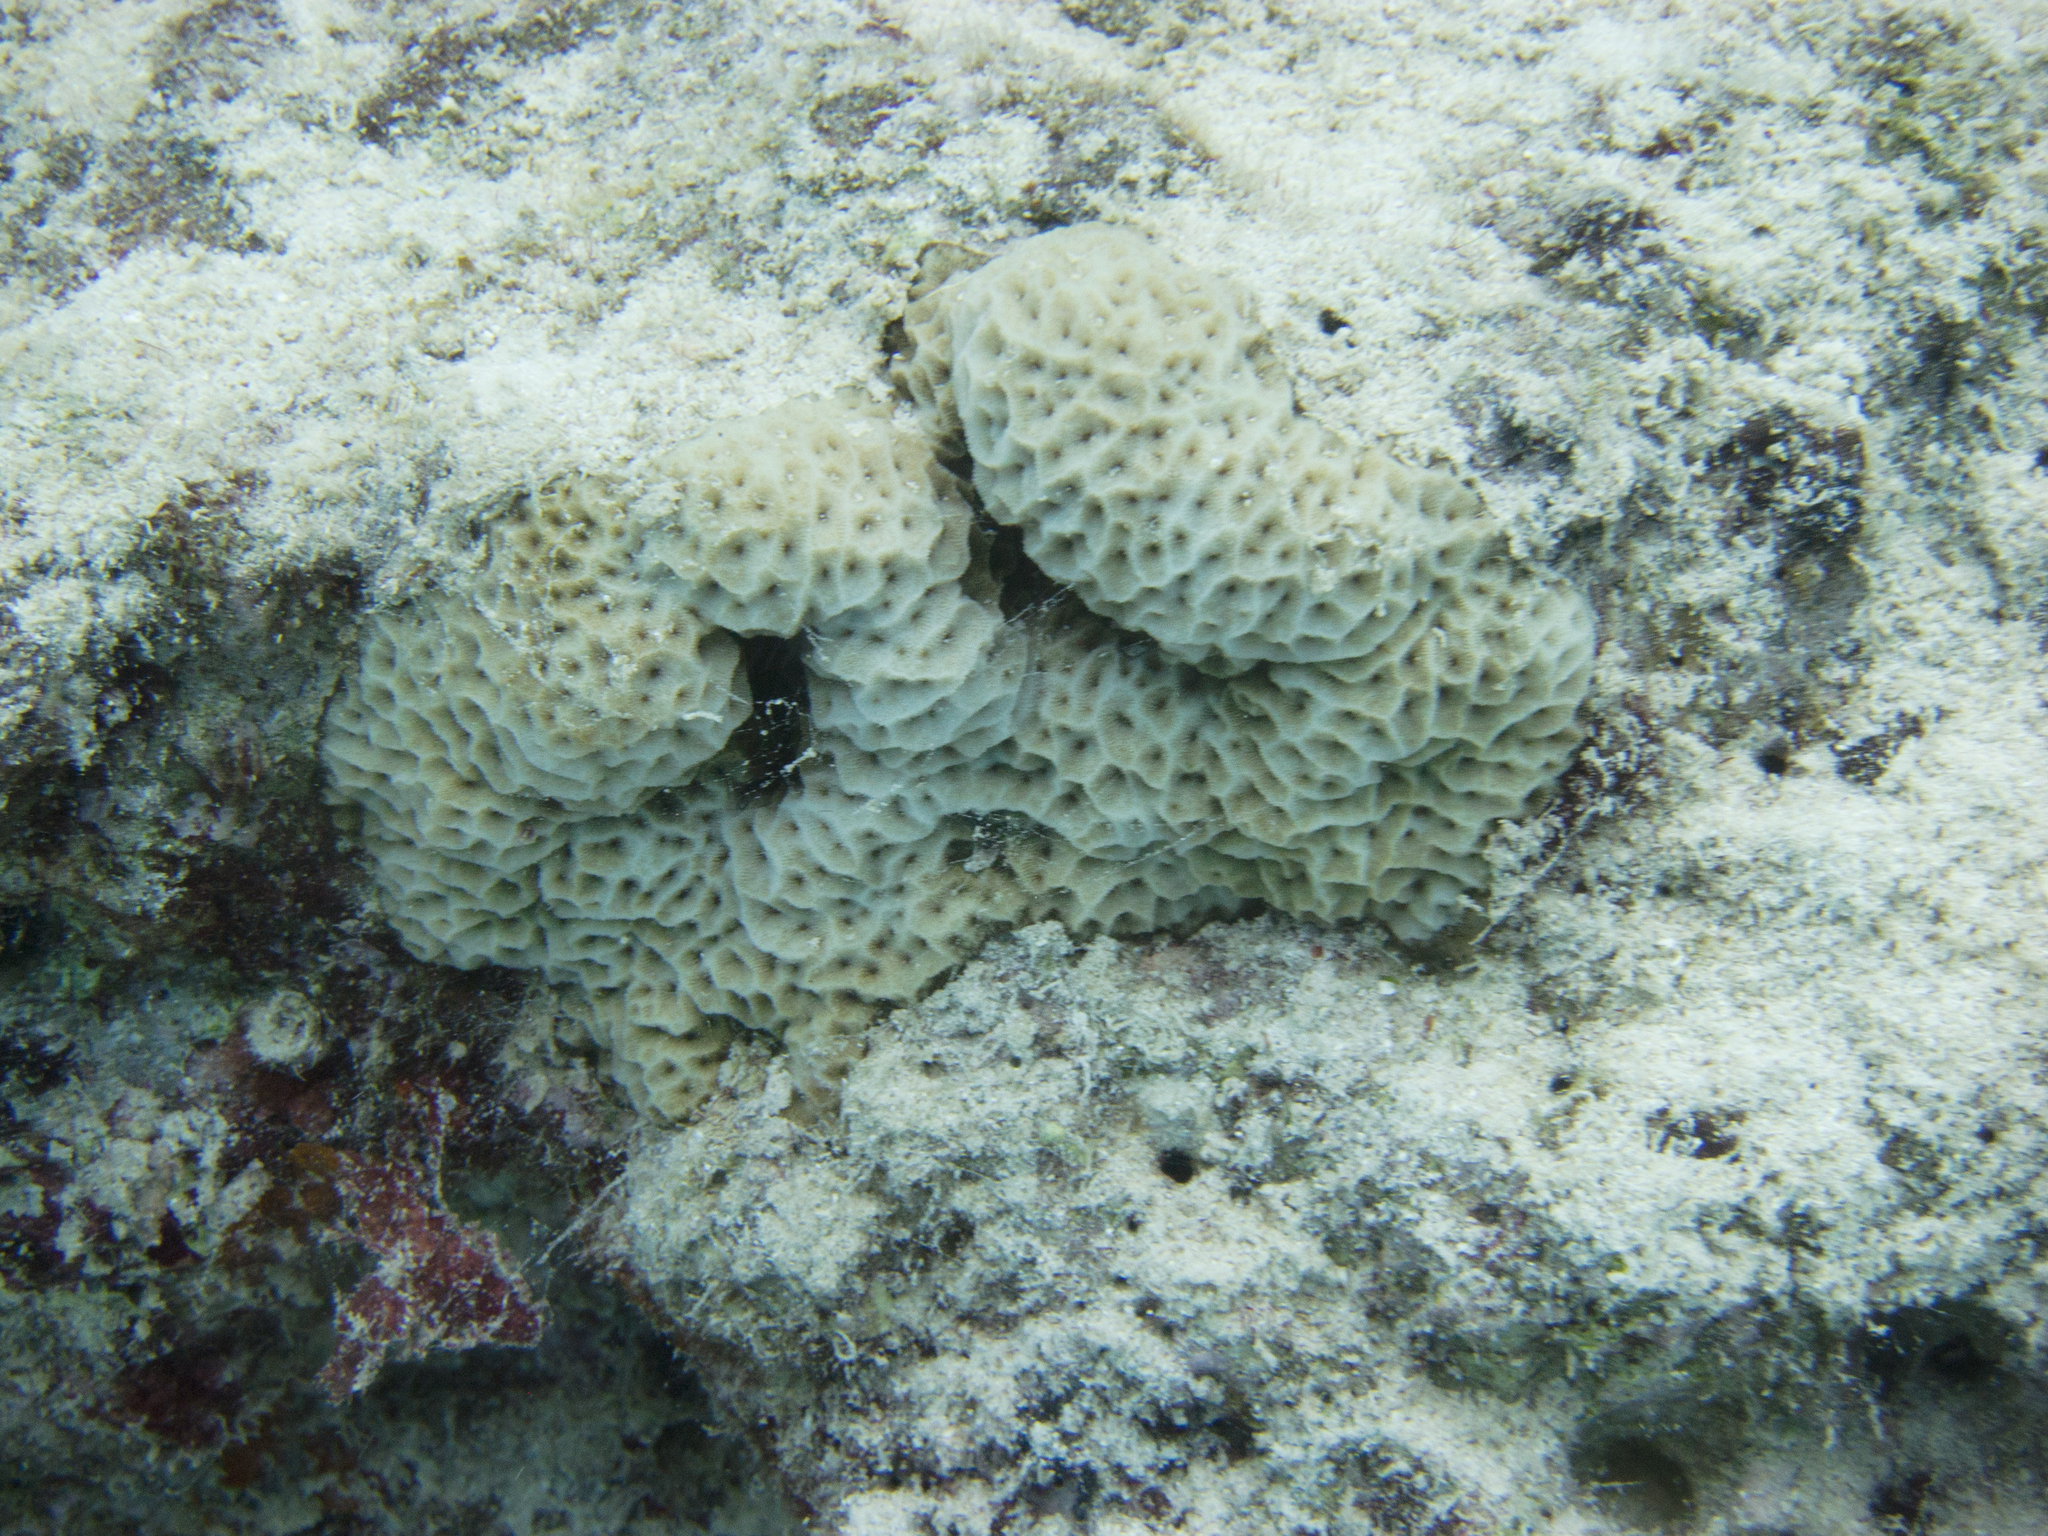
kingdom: Animalia
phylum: Cnidaria
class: Anthozoa
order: Scleractinia
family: Psammocoridae
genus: Psammocora
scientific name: Psammocora profundacella
